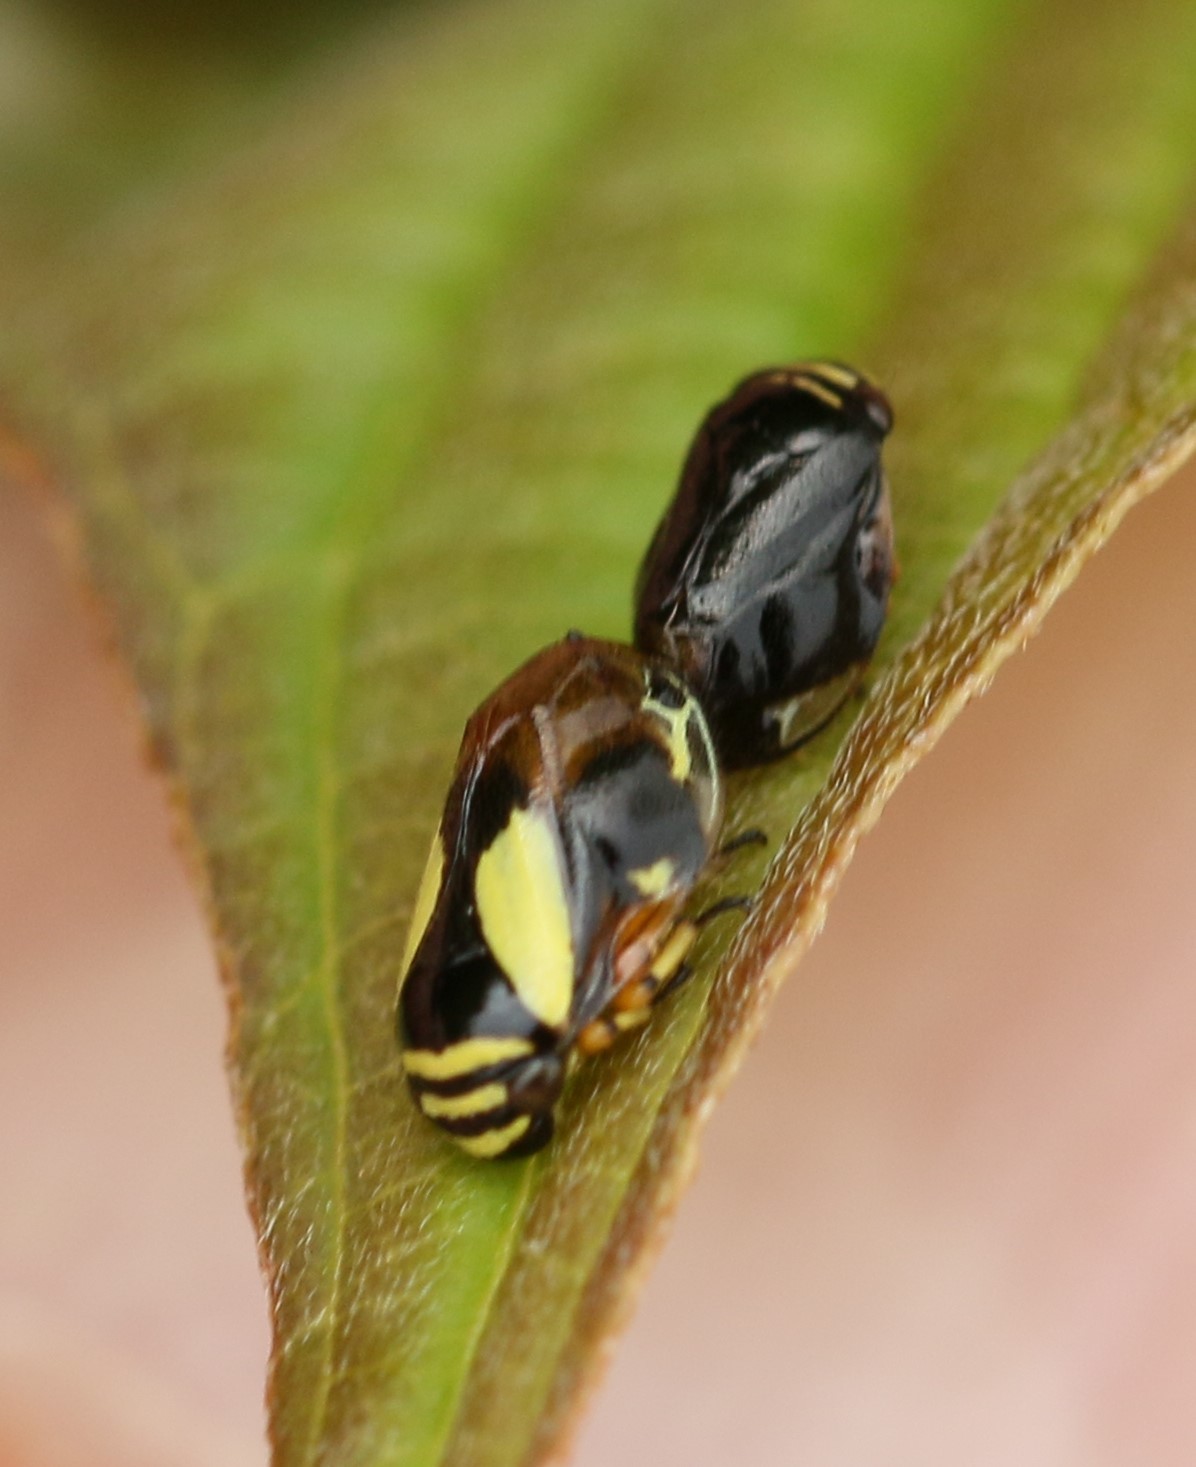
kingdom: Animalia
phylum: Arthropoda
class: Insecta
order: Hemiptera
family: Clastopteridae
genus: Clastoptera
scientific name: Clastoptera proteus
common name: Dogwood spittlebug
